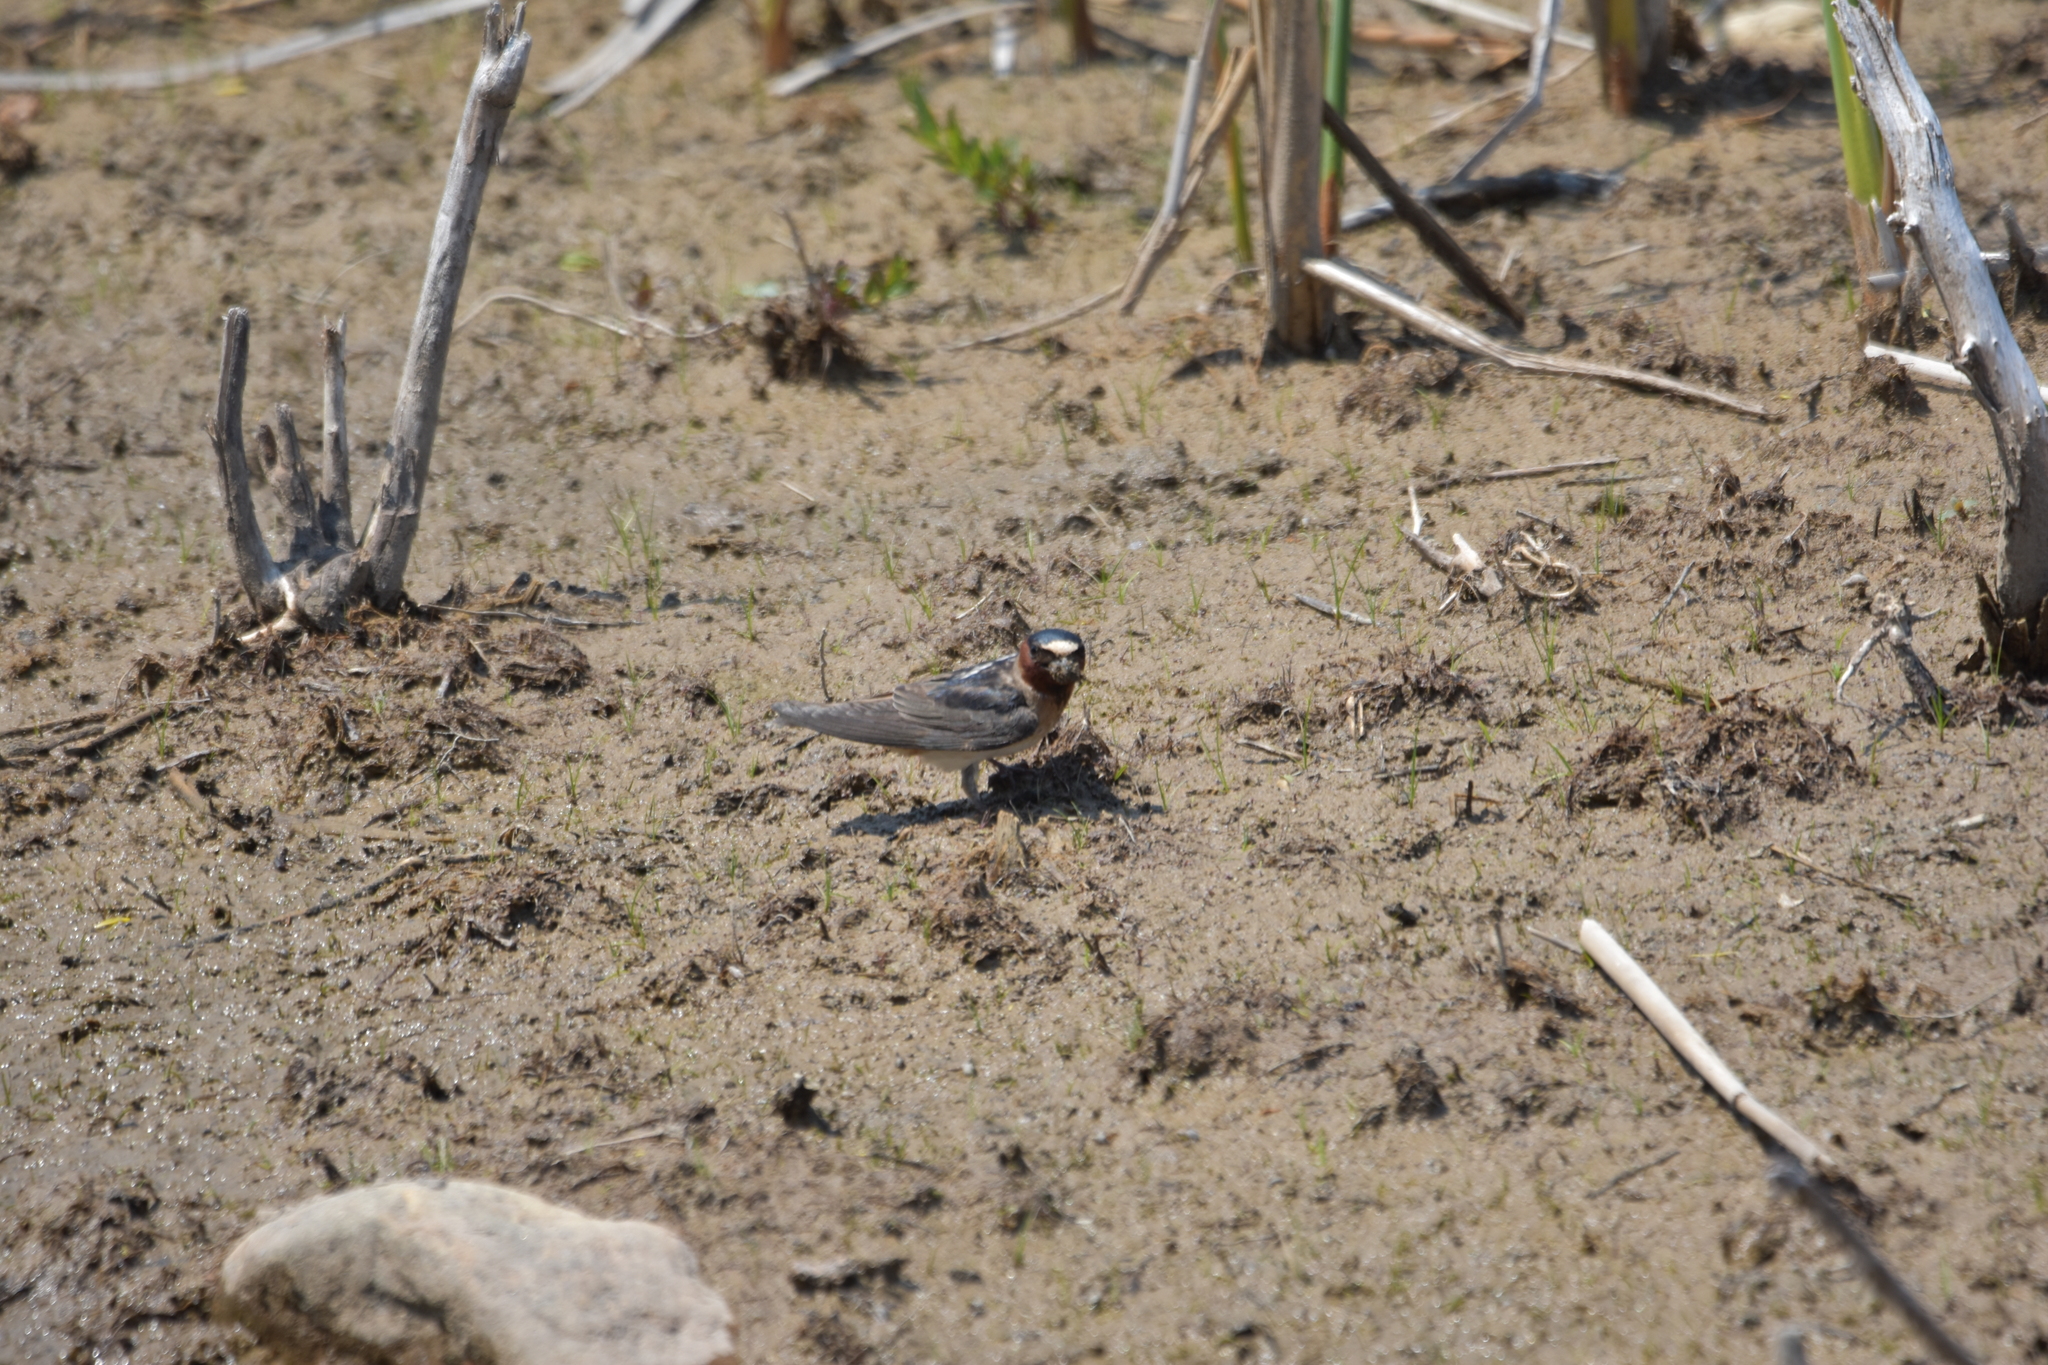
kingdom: Animalia
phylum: Chordata
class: Aves
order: Passeriformes
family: Hirundinidae
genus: Petrochelidon
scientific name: Petrochelidon pyrrhonota
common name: American cliff swallow
